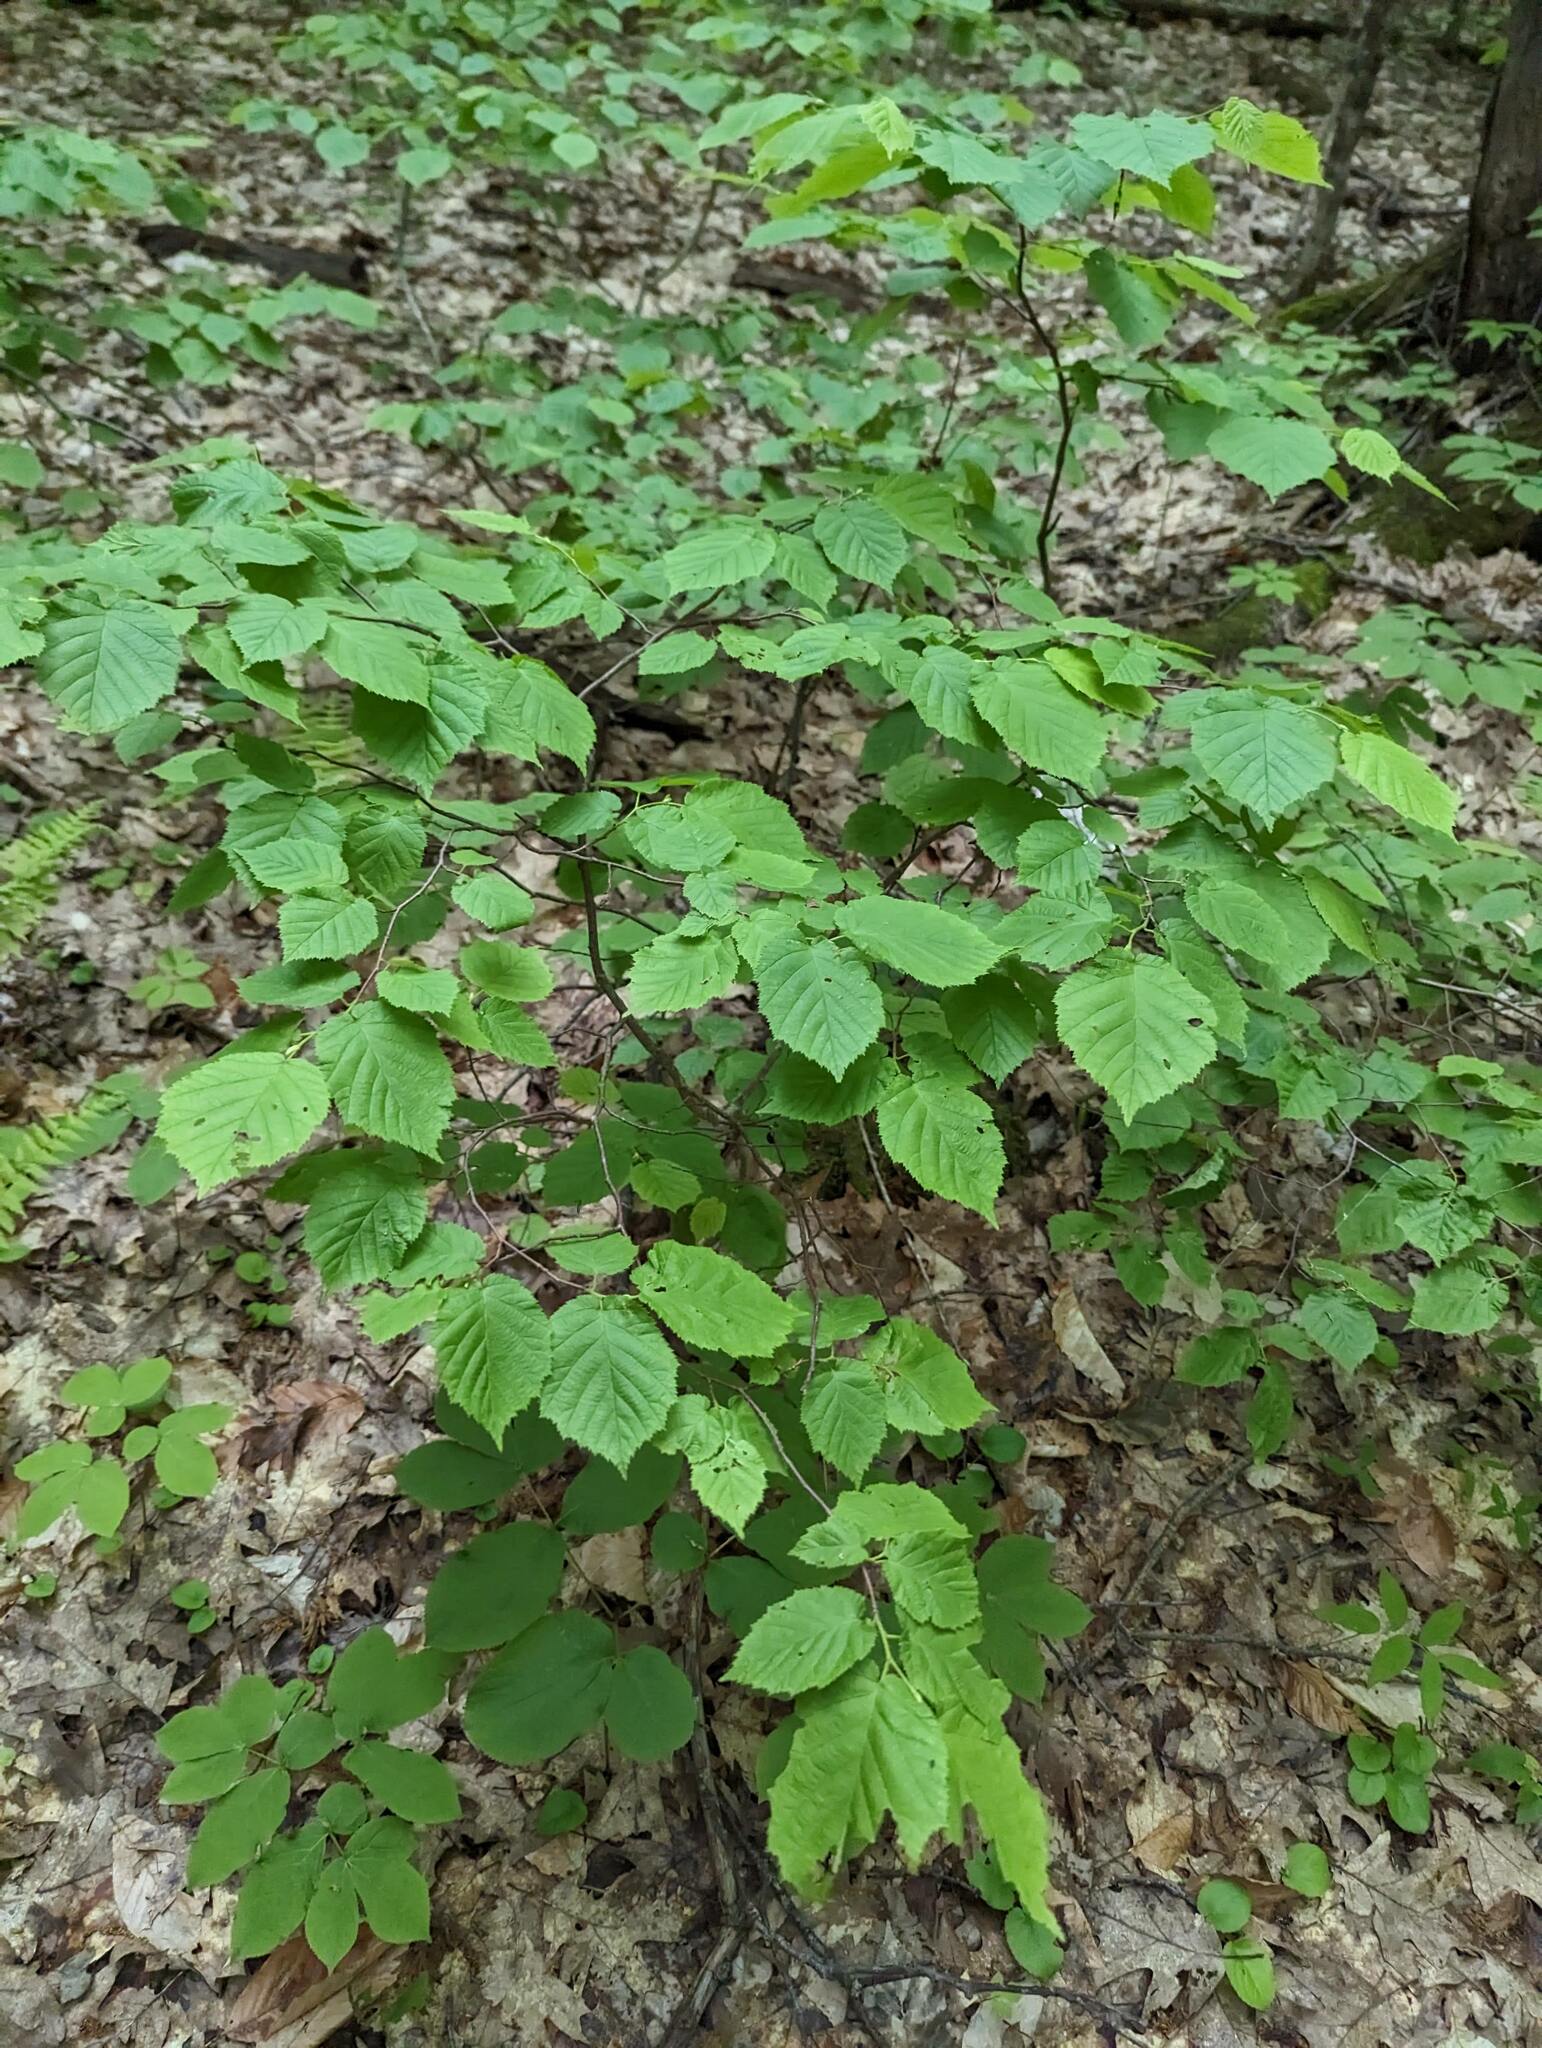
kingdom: Plantae
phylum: Tracheophyta
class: Magnoliopsida
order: Fagales
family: Betulaceae
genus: Corylus
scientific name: Corylus cornuta
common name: Beaked hazel
